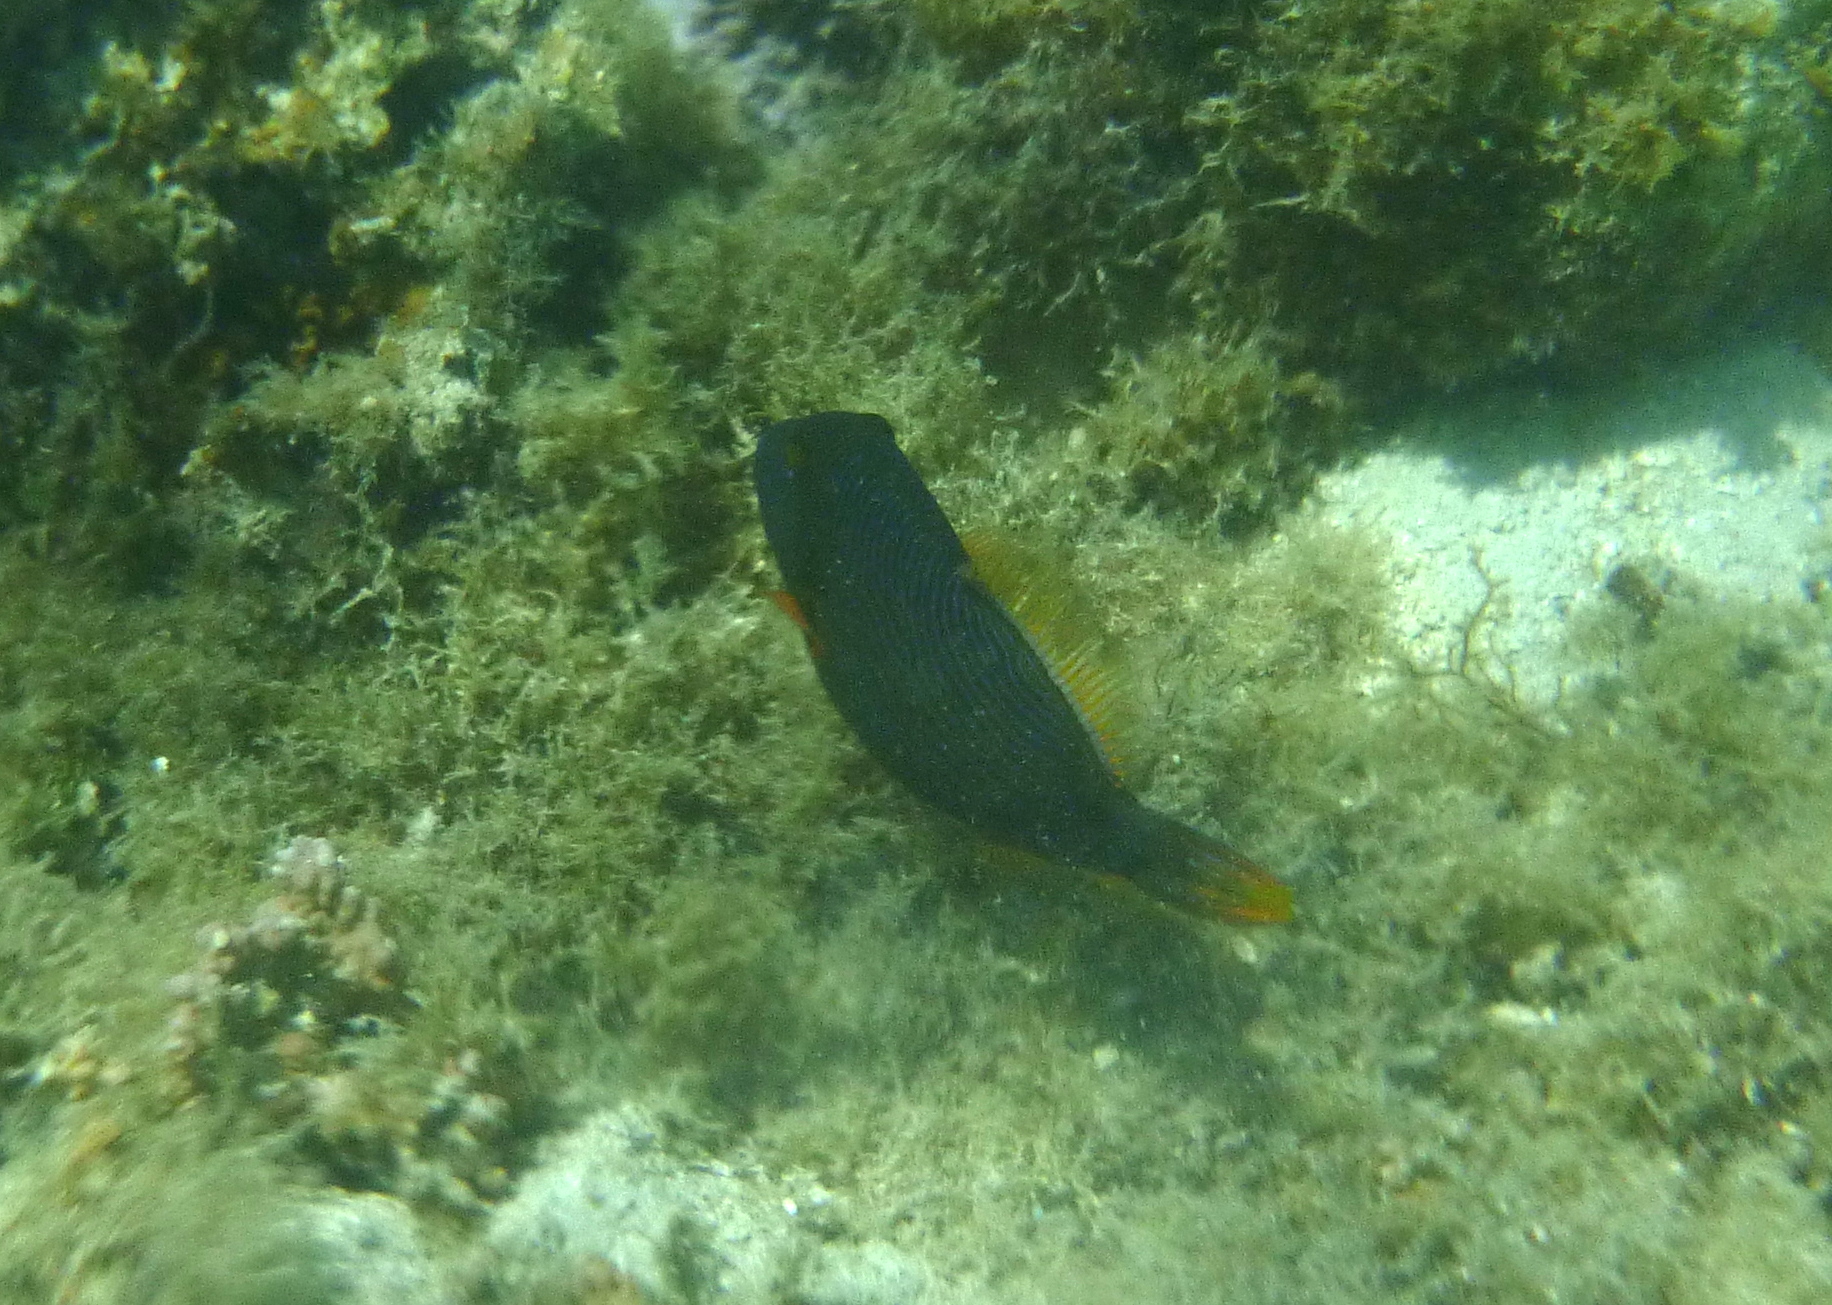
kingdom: Animalia
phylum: Chordata
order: Tetraodontiformes
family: Balistidae
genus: Balistapus
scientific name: Balistapus undulatus
